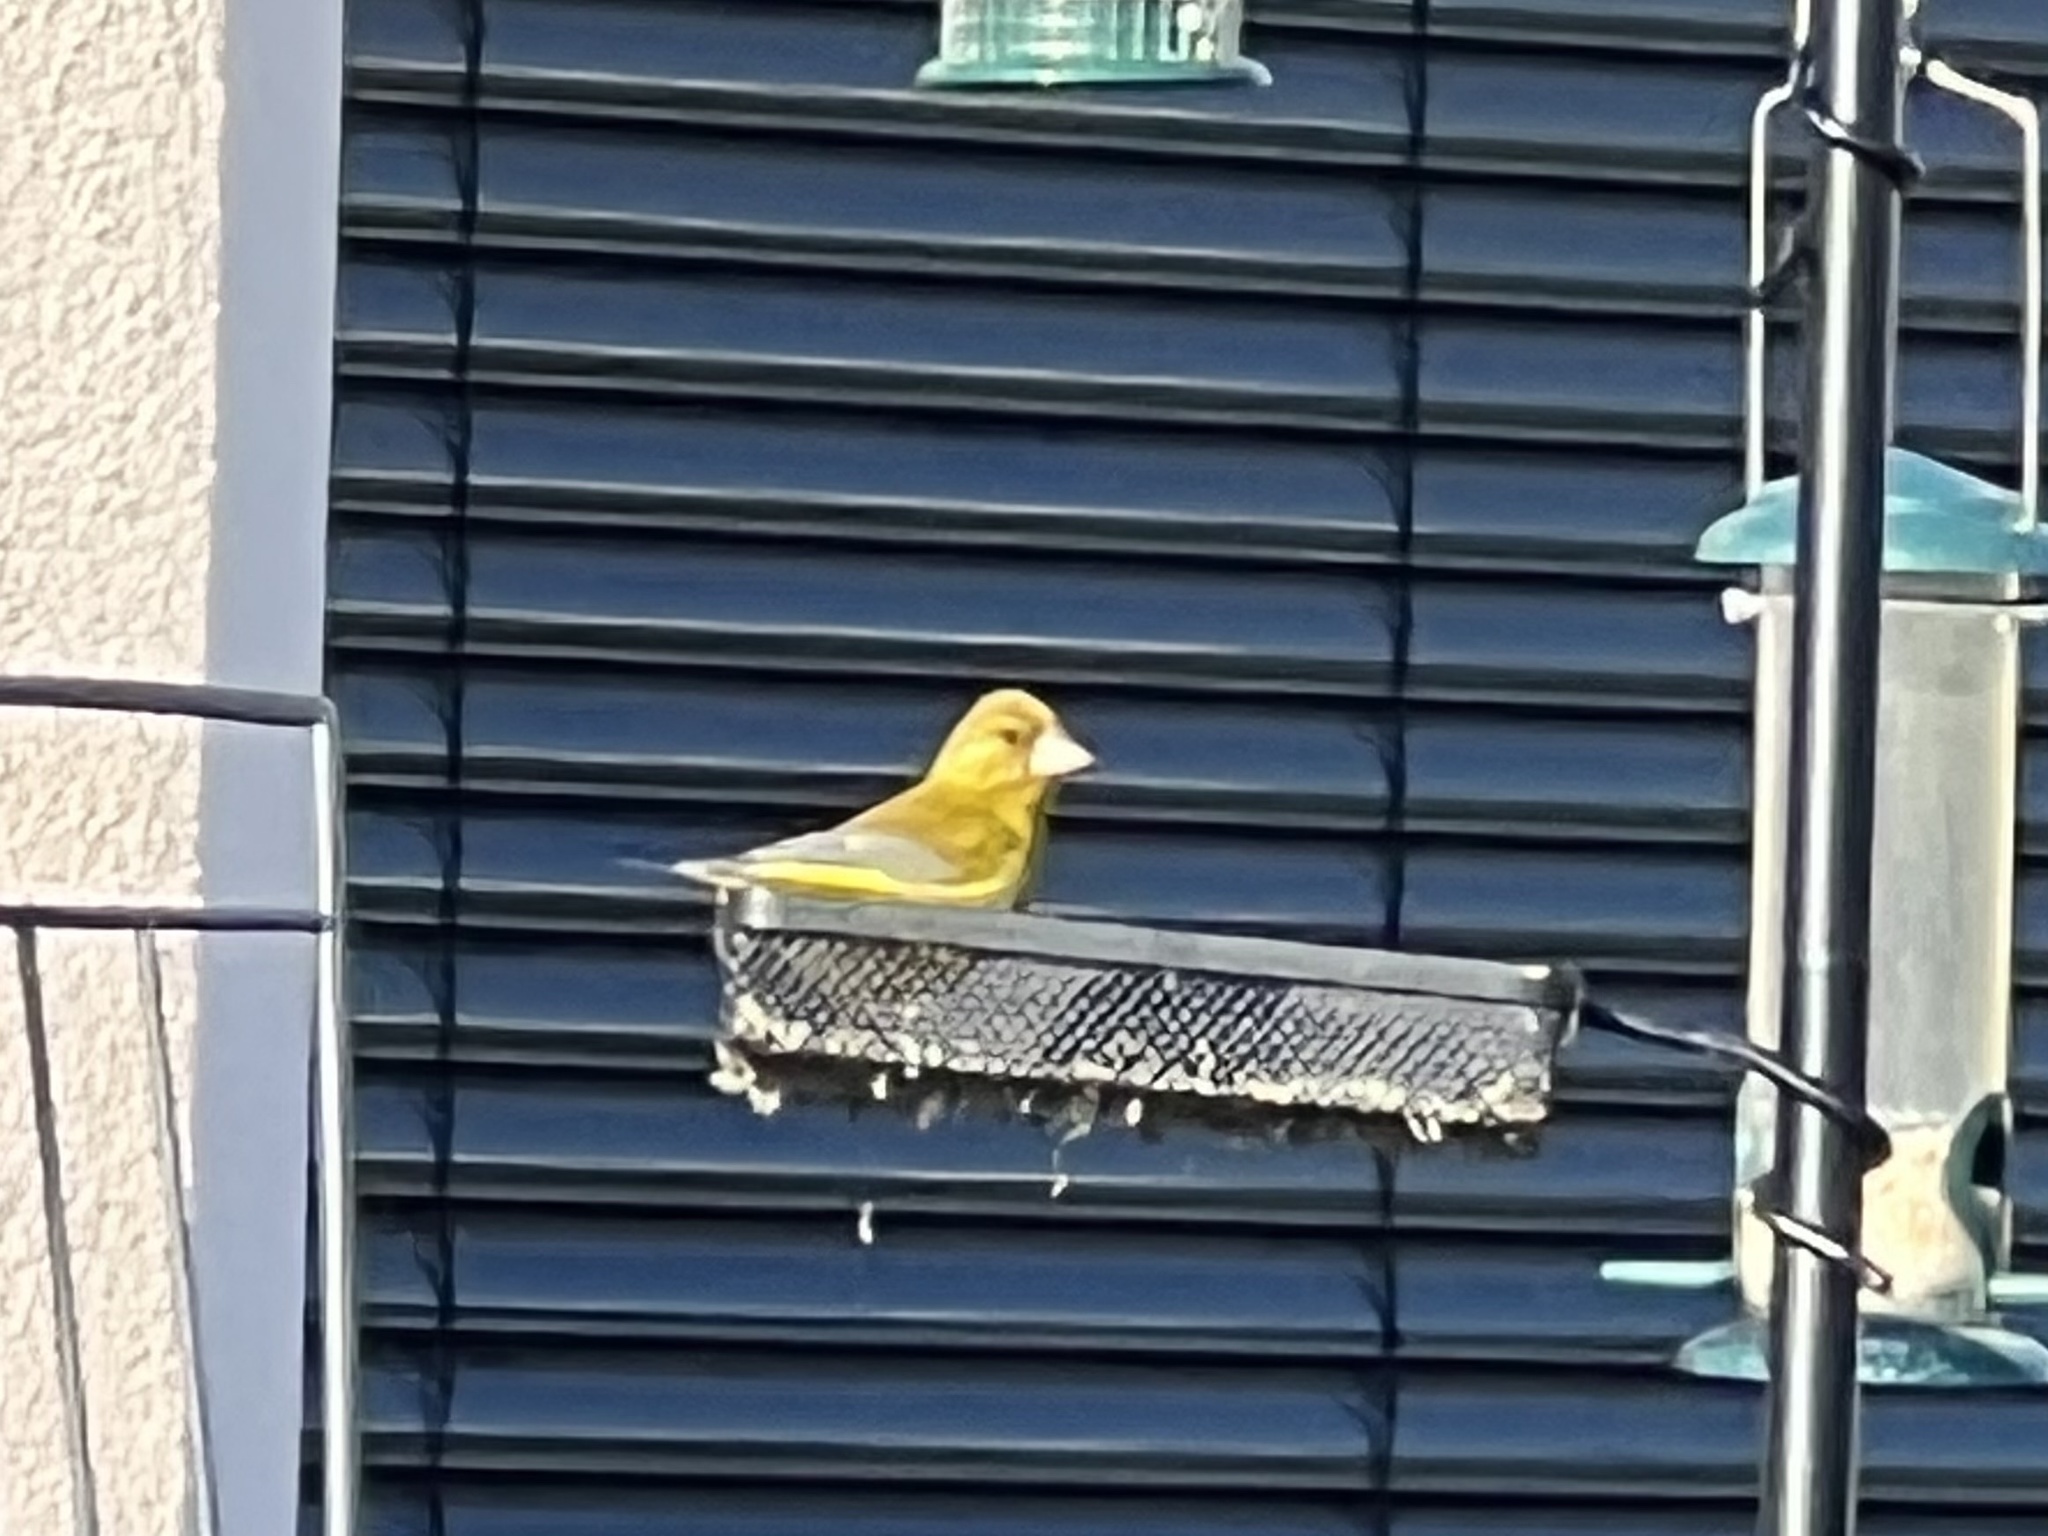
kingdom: Plantae
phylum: Tracheophyta
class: Liliopsida
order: Poales
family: Poaceae
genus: Chloris
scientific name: Chloris chloris
